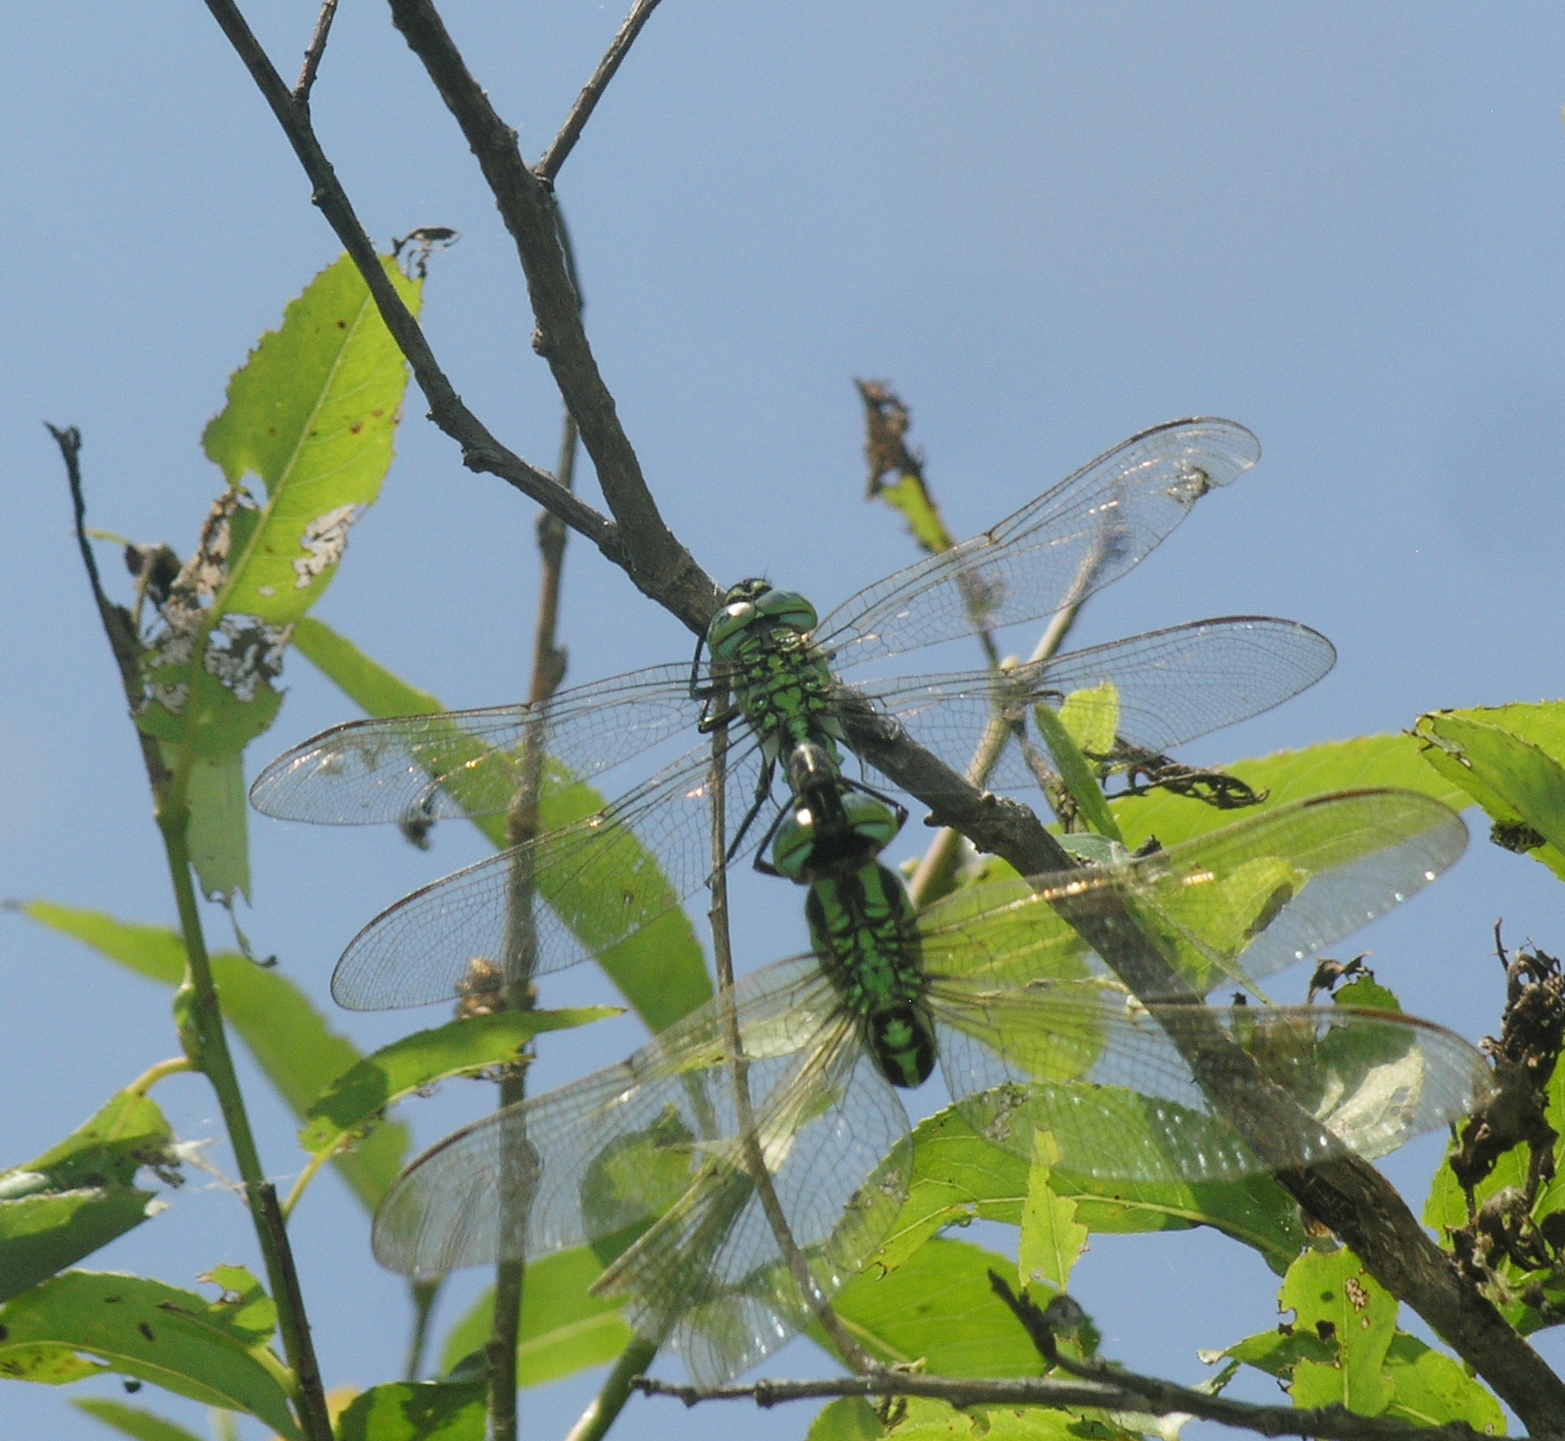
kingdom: Animalia
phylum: Arthropoda
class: Insecta
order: Odonata
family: Aeshnidae
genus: Brachytron
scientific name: Brachytron
